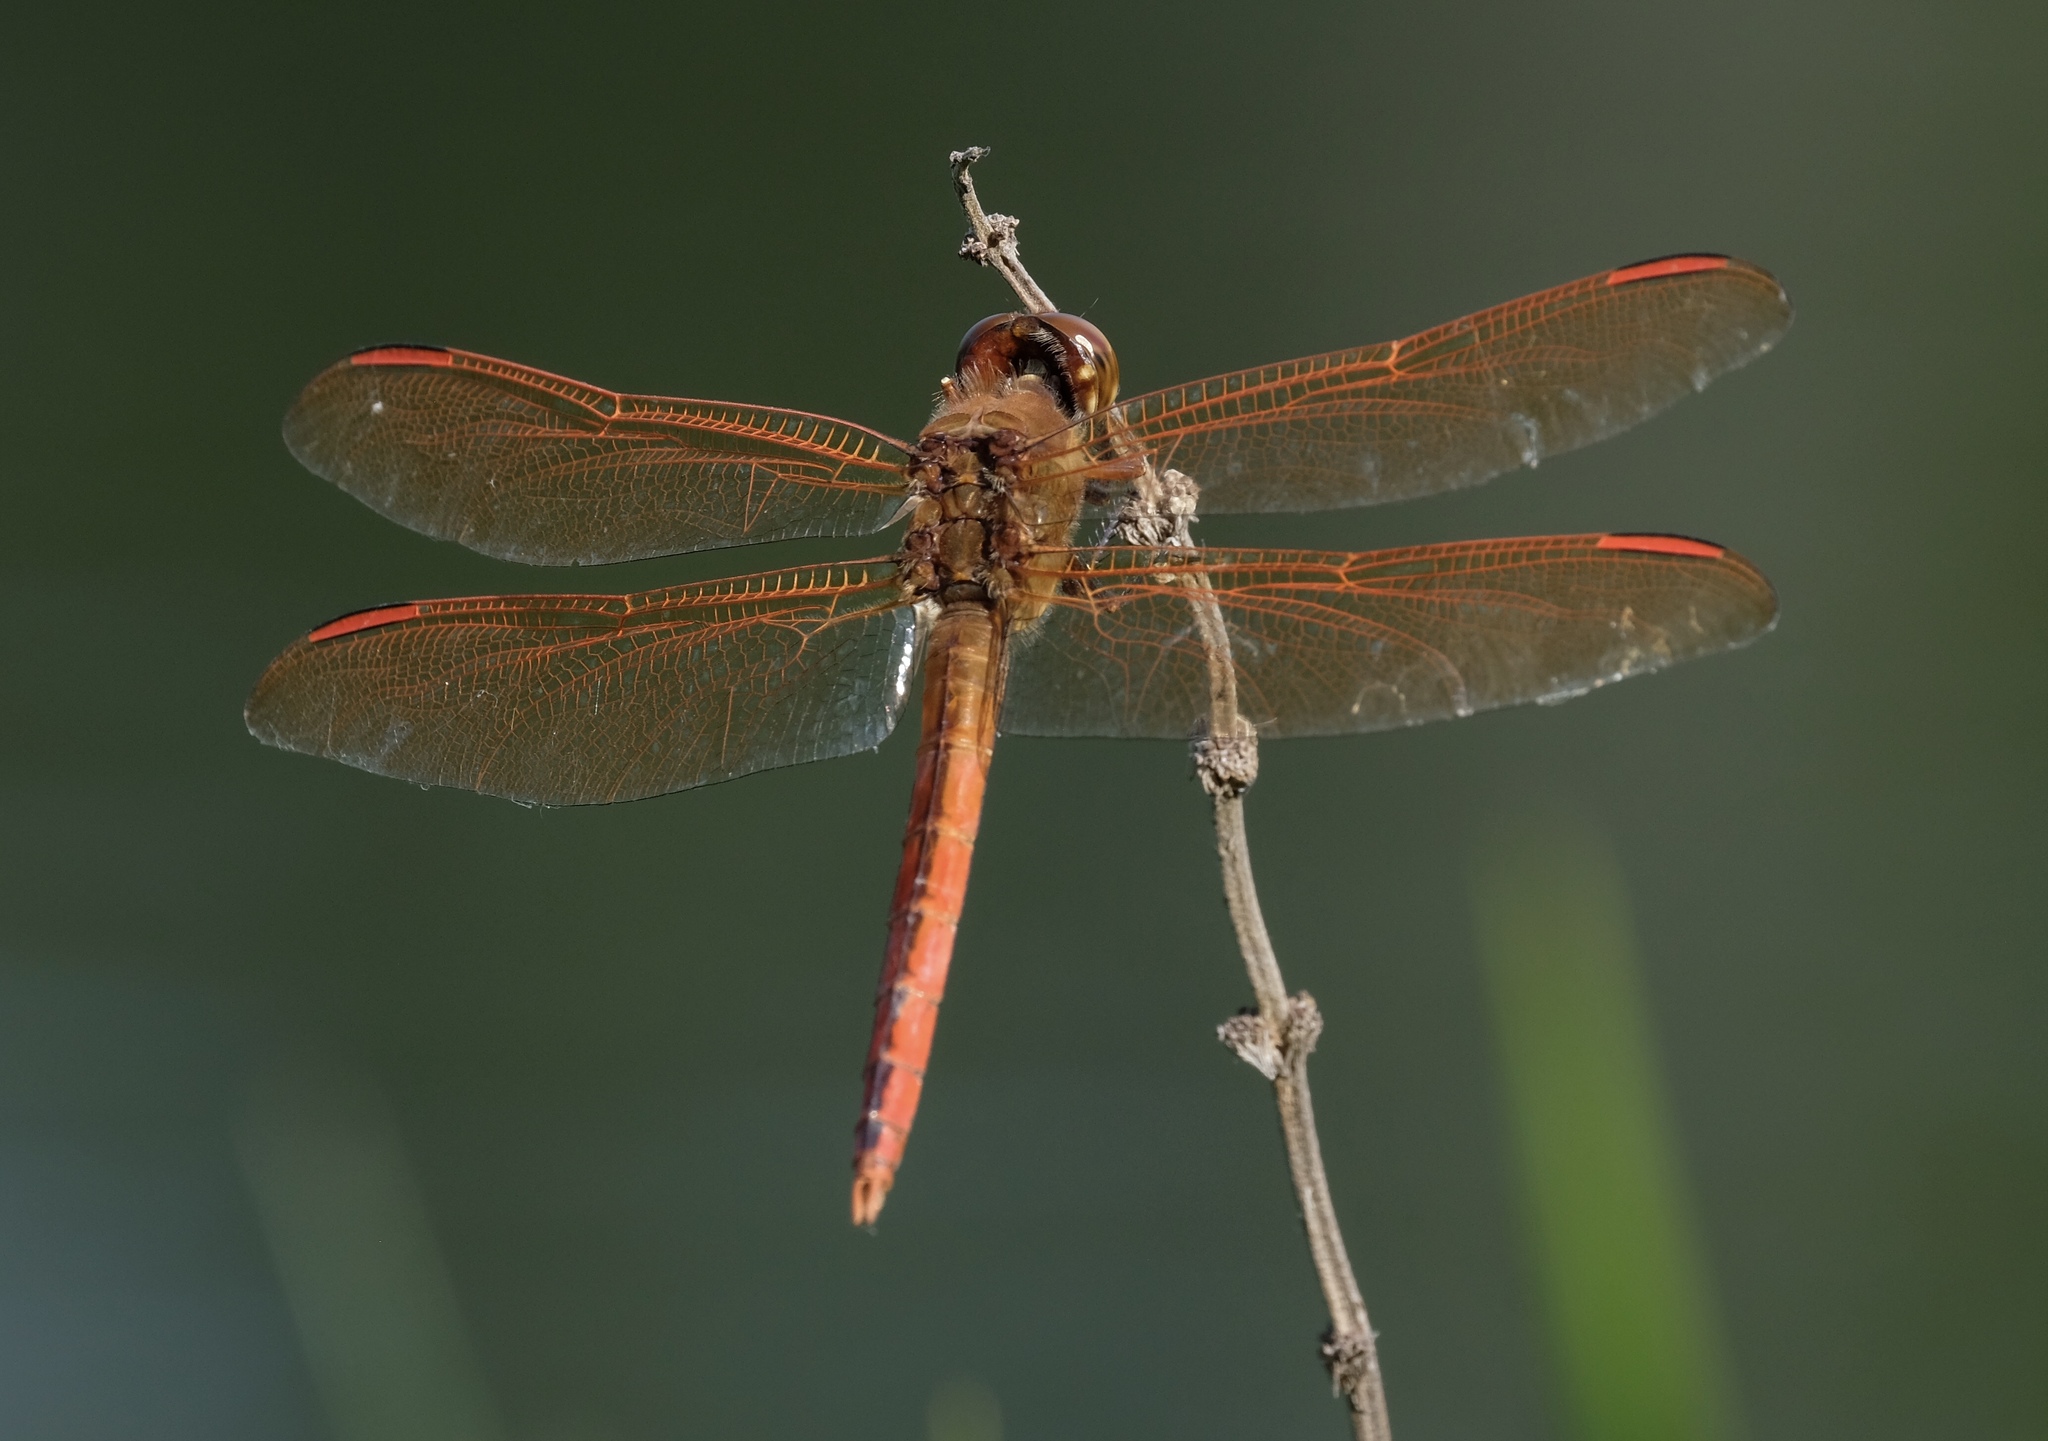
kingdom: Animalia
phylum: Arthropoda
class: Insecta
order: Odonata
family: Libellulidae
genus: Libellula
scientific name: Libellula auripennis
